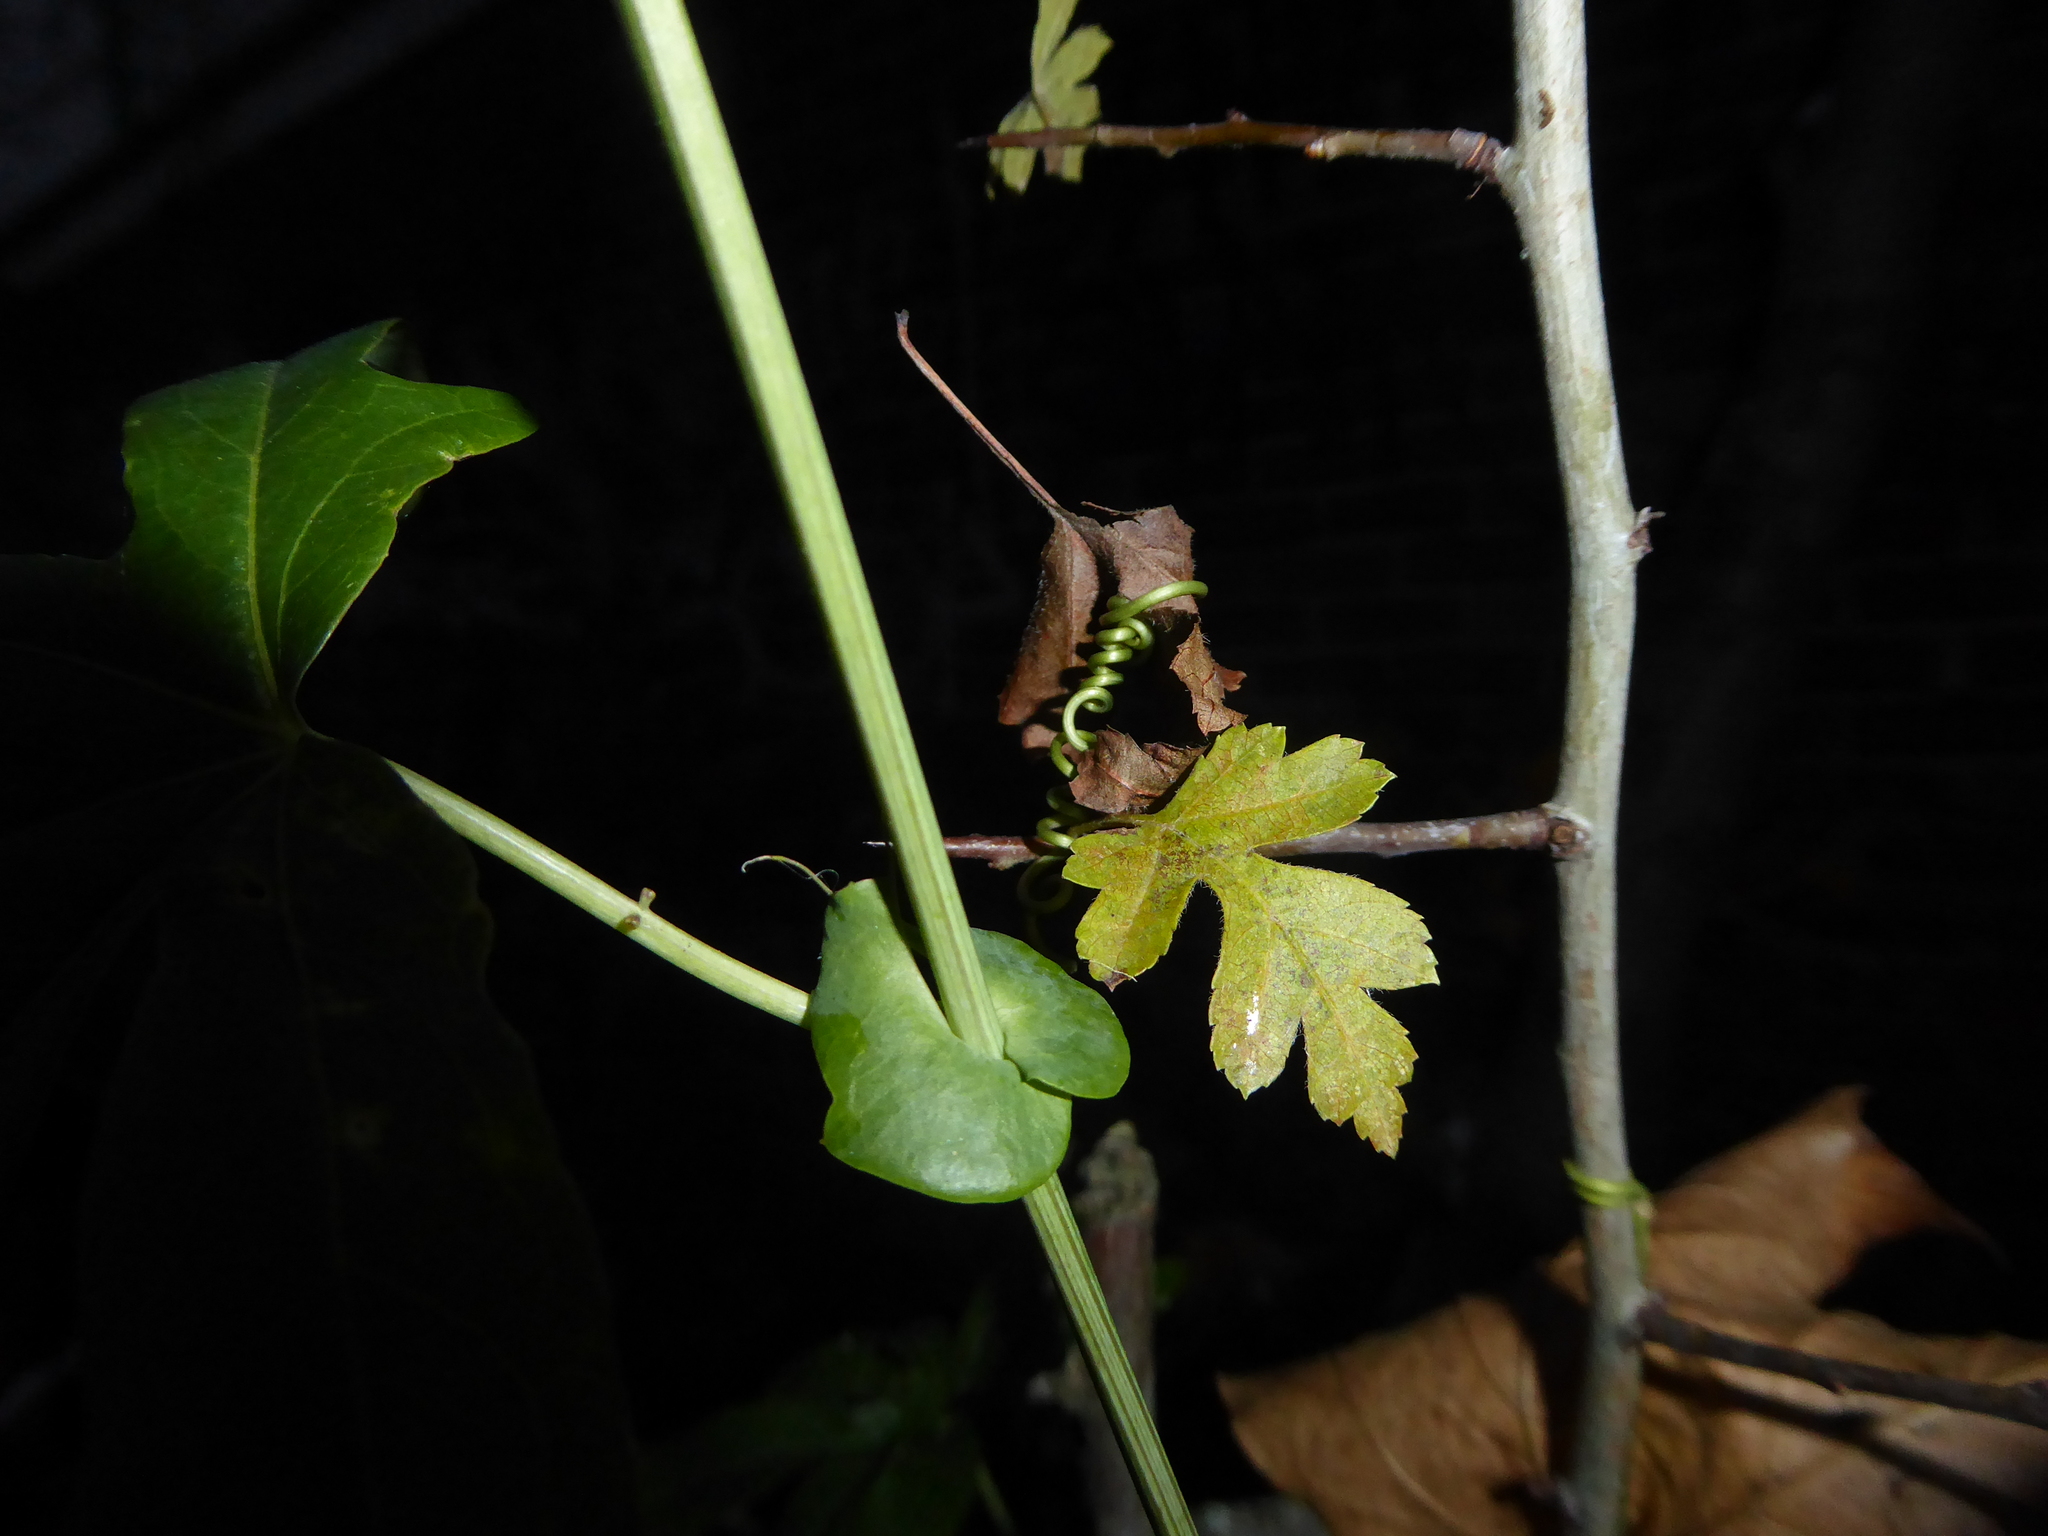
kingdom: Plantae
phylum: Tracheophyta
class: Magnoliopsida
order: Rosales
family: Rosaceae
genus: Crataegus
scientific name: Crataegus monogyna
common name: Hawthorn
